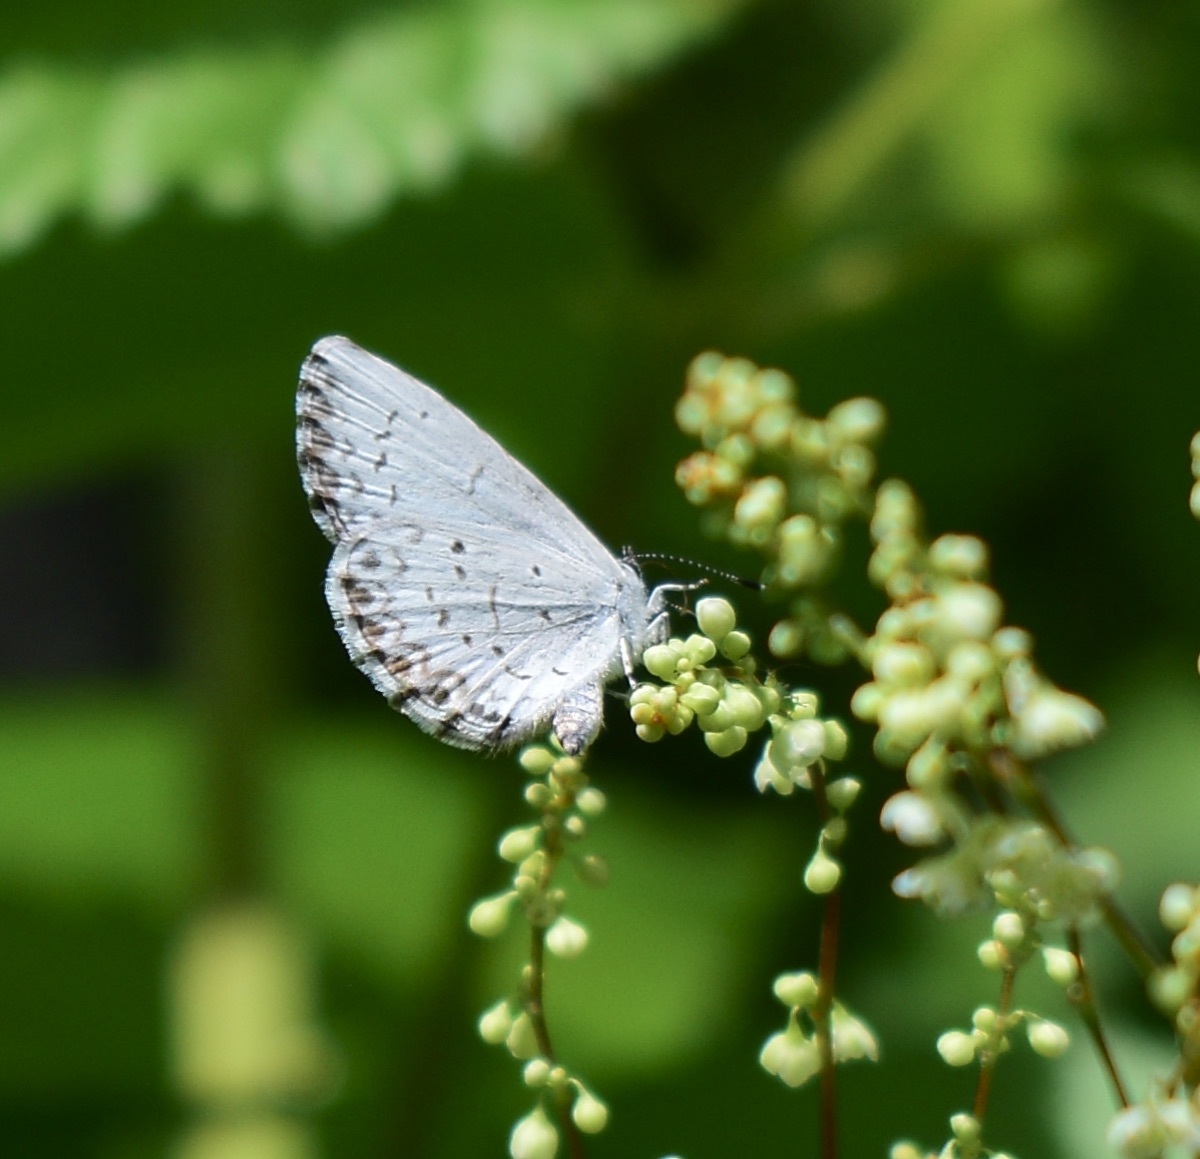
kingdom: Animalia
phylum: Arthropoda
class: Insecta
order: Lepidoptera
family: Lycaenidae
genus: Cyaniris
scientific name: Cyaniris neglecta
